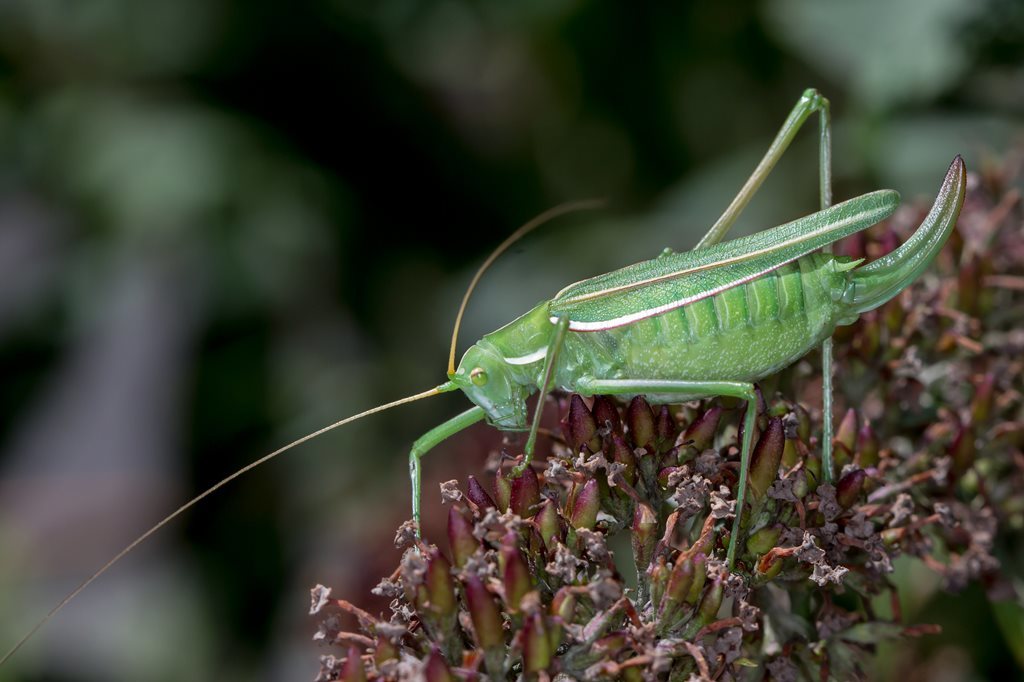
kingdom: Animalia
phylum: Arthropoda
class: Insecta
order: Orthoptera
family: Tettigoniidae
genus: Tinzeda
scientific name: Tinzeda albosignata
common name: Stout tinzeda
